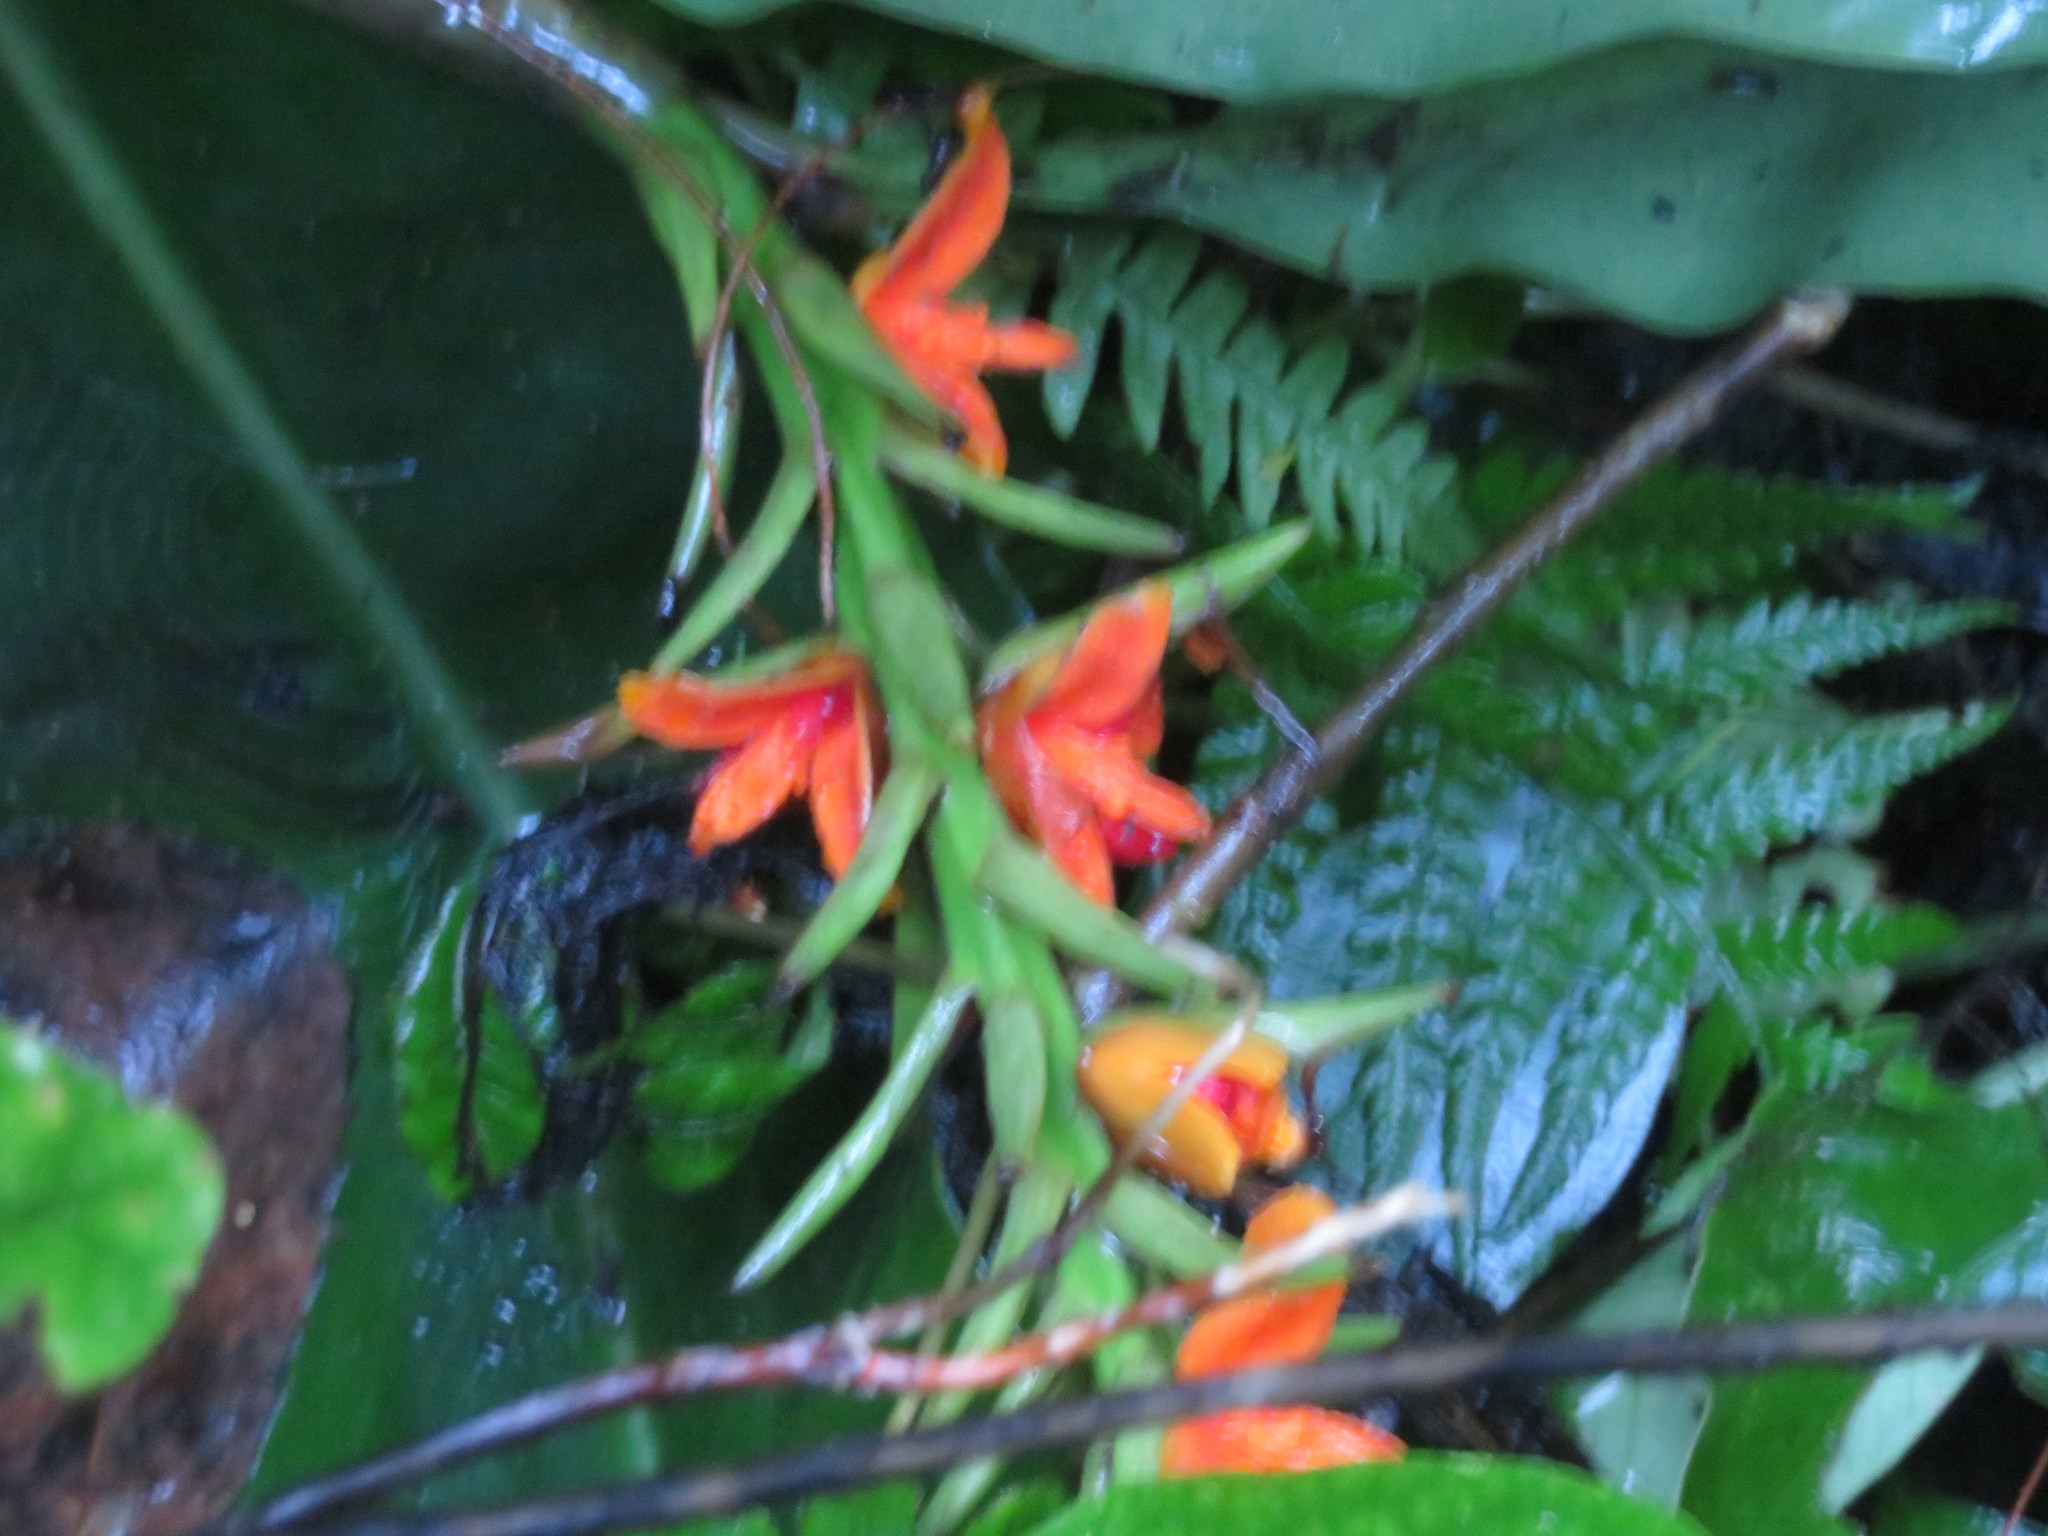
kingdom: Plantae
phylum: Tracheophyta
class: Liliopsida
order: Zingiberales
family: Zingiberaceae
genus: Hedychium
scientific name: Hedychium gardnerianum
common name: Himalayan ginger
